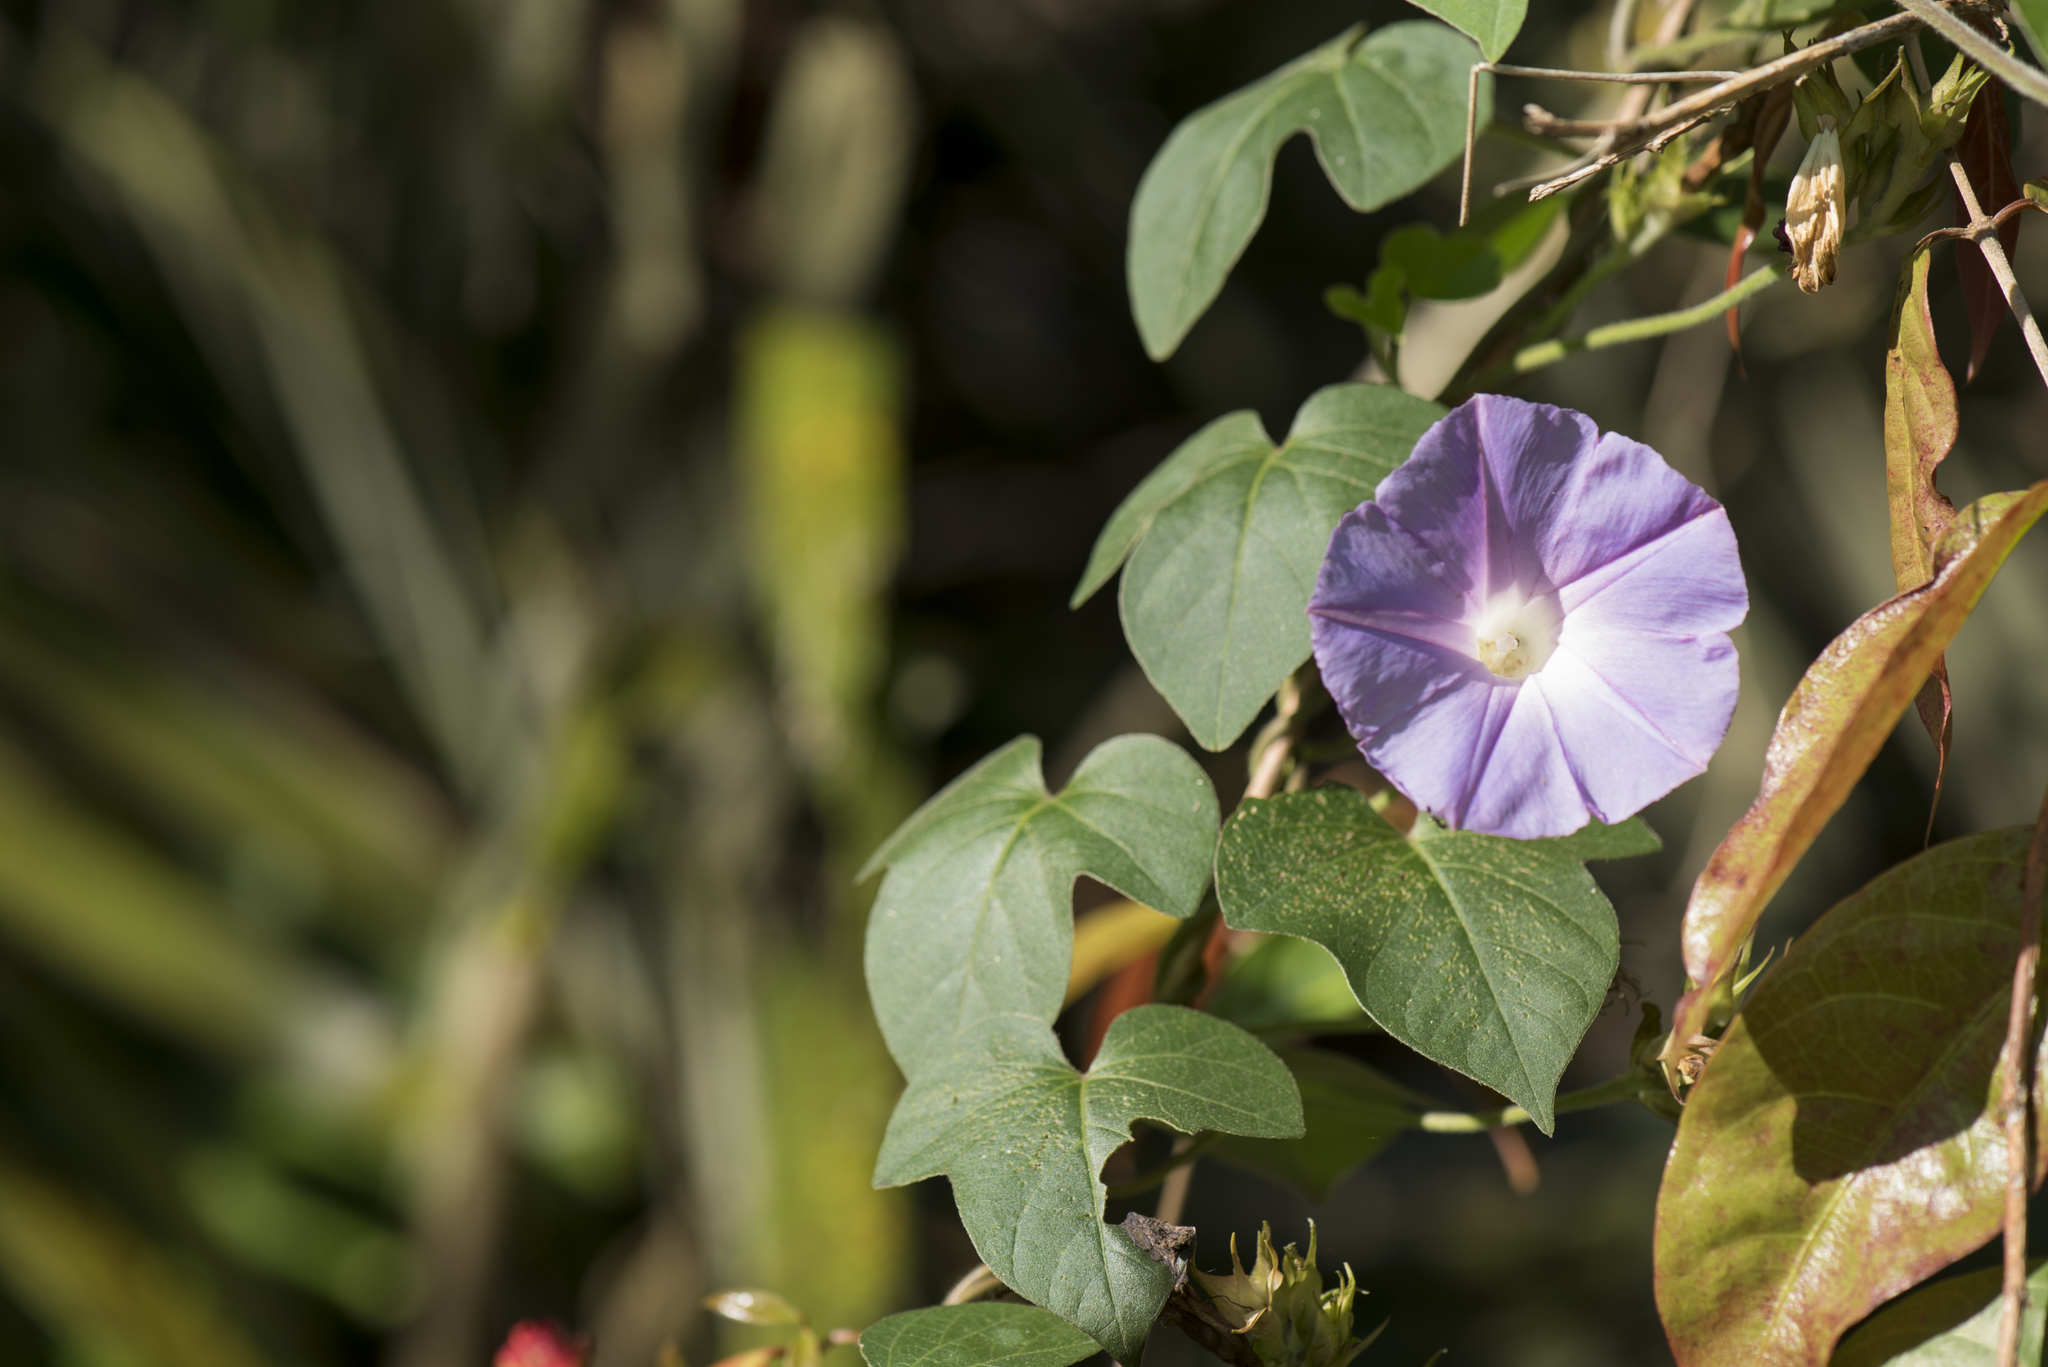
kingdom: Plantae
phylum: Tracheophyta
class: Magnoliopsida
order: Solanales
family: Convolvulaceae
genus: Ipomoea
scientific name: Ipomoea indica
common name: Blue dawnflower
